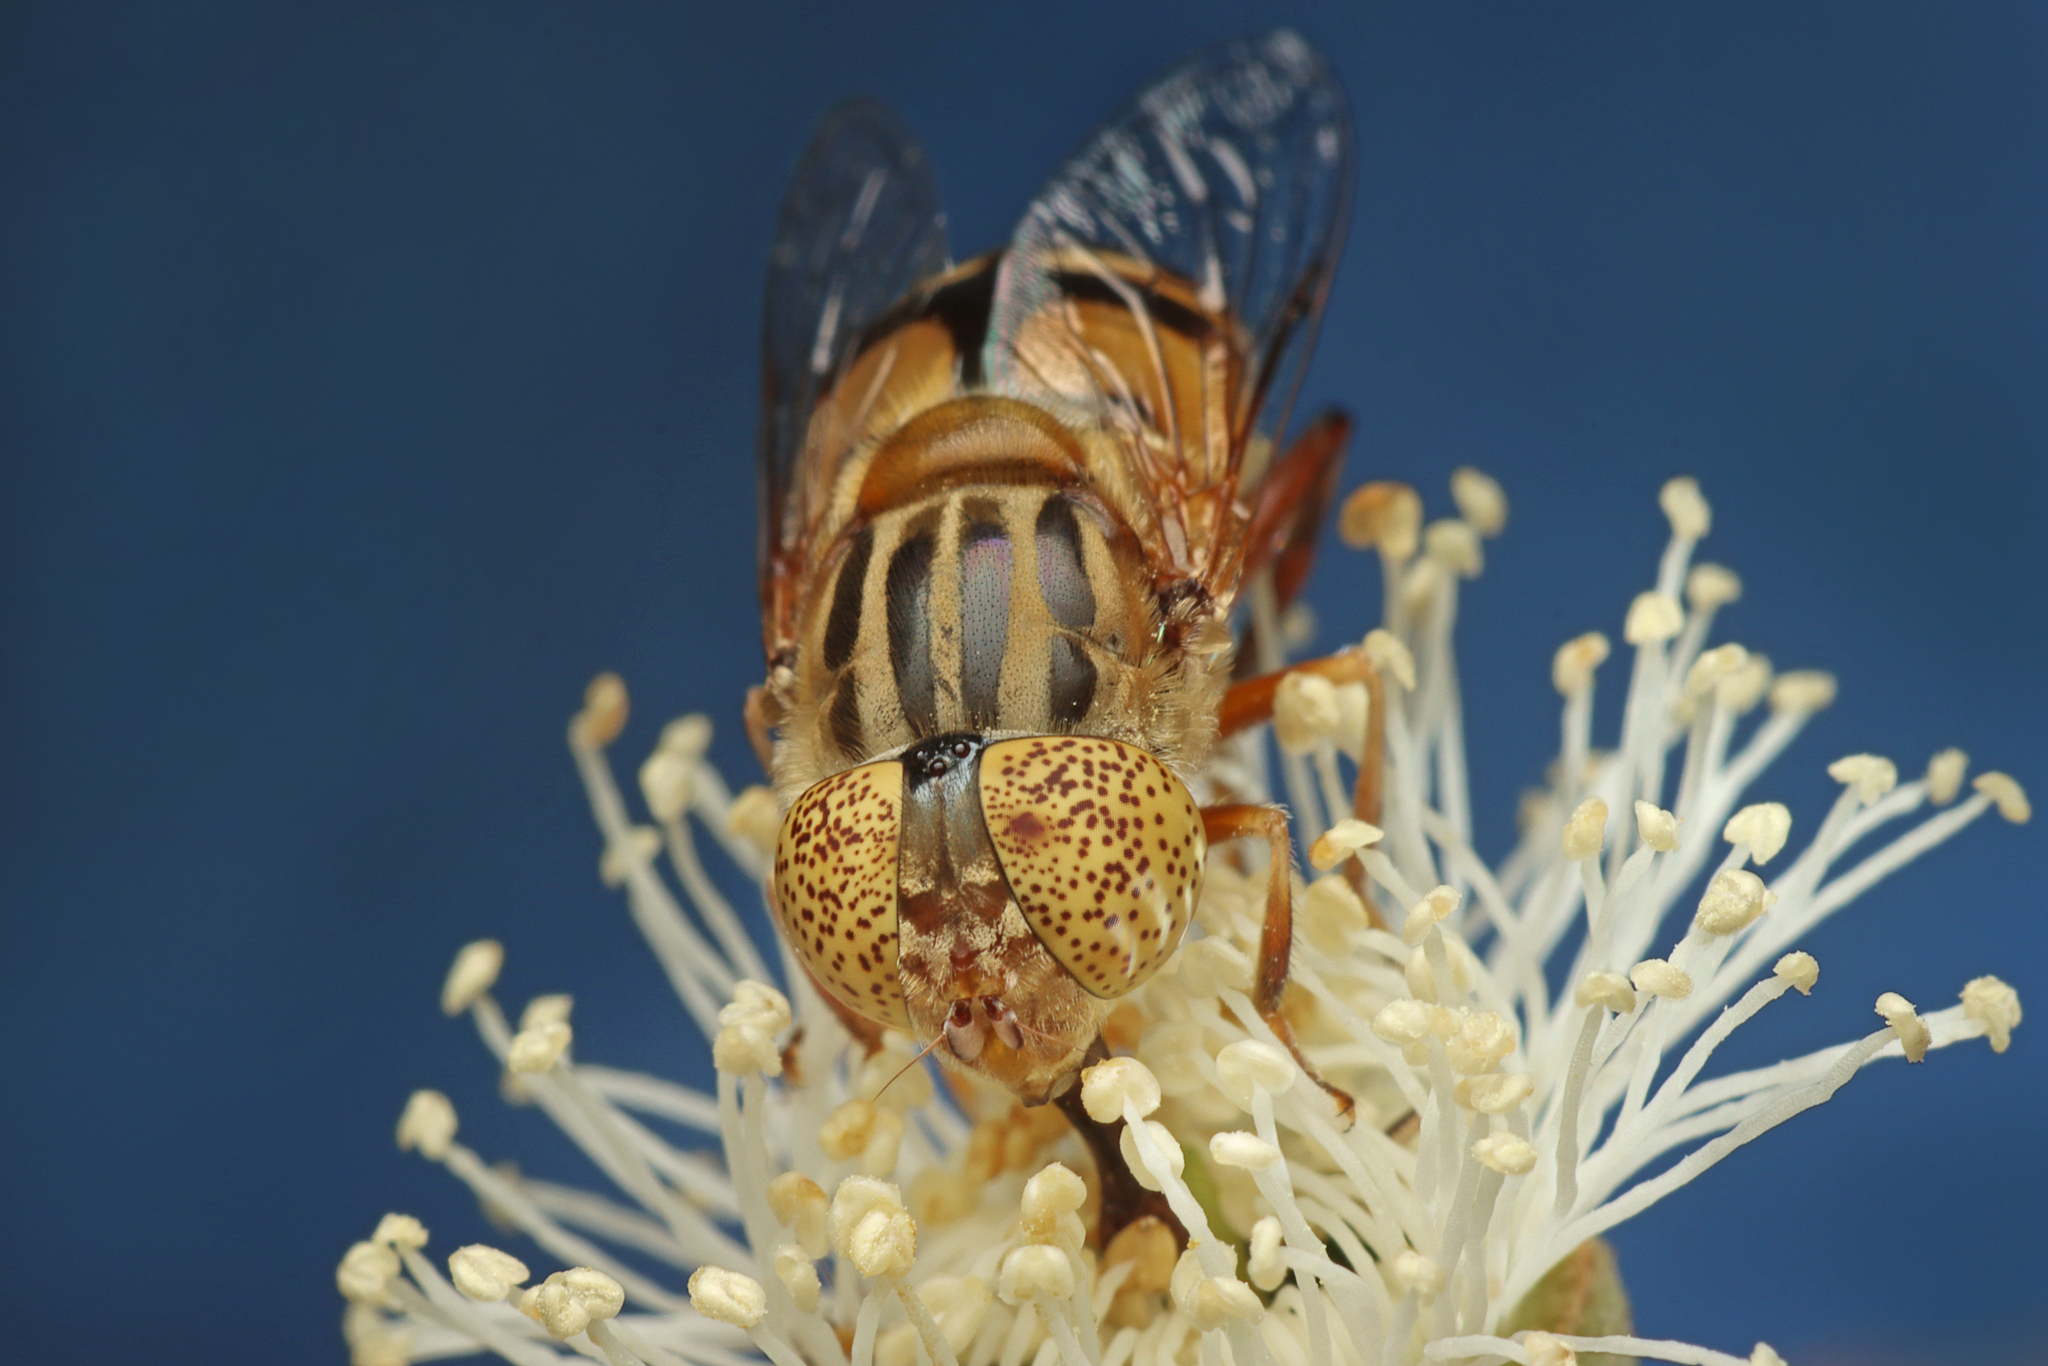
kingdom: Animalia
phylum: Arthropoda
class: Insecta
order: Diptera
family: Syrphidae
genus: Eristalinus
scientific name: Eristalinus punctulatus
